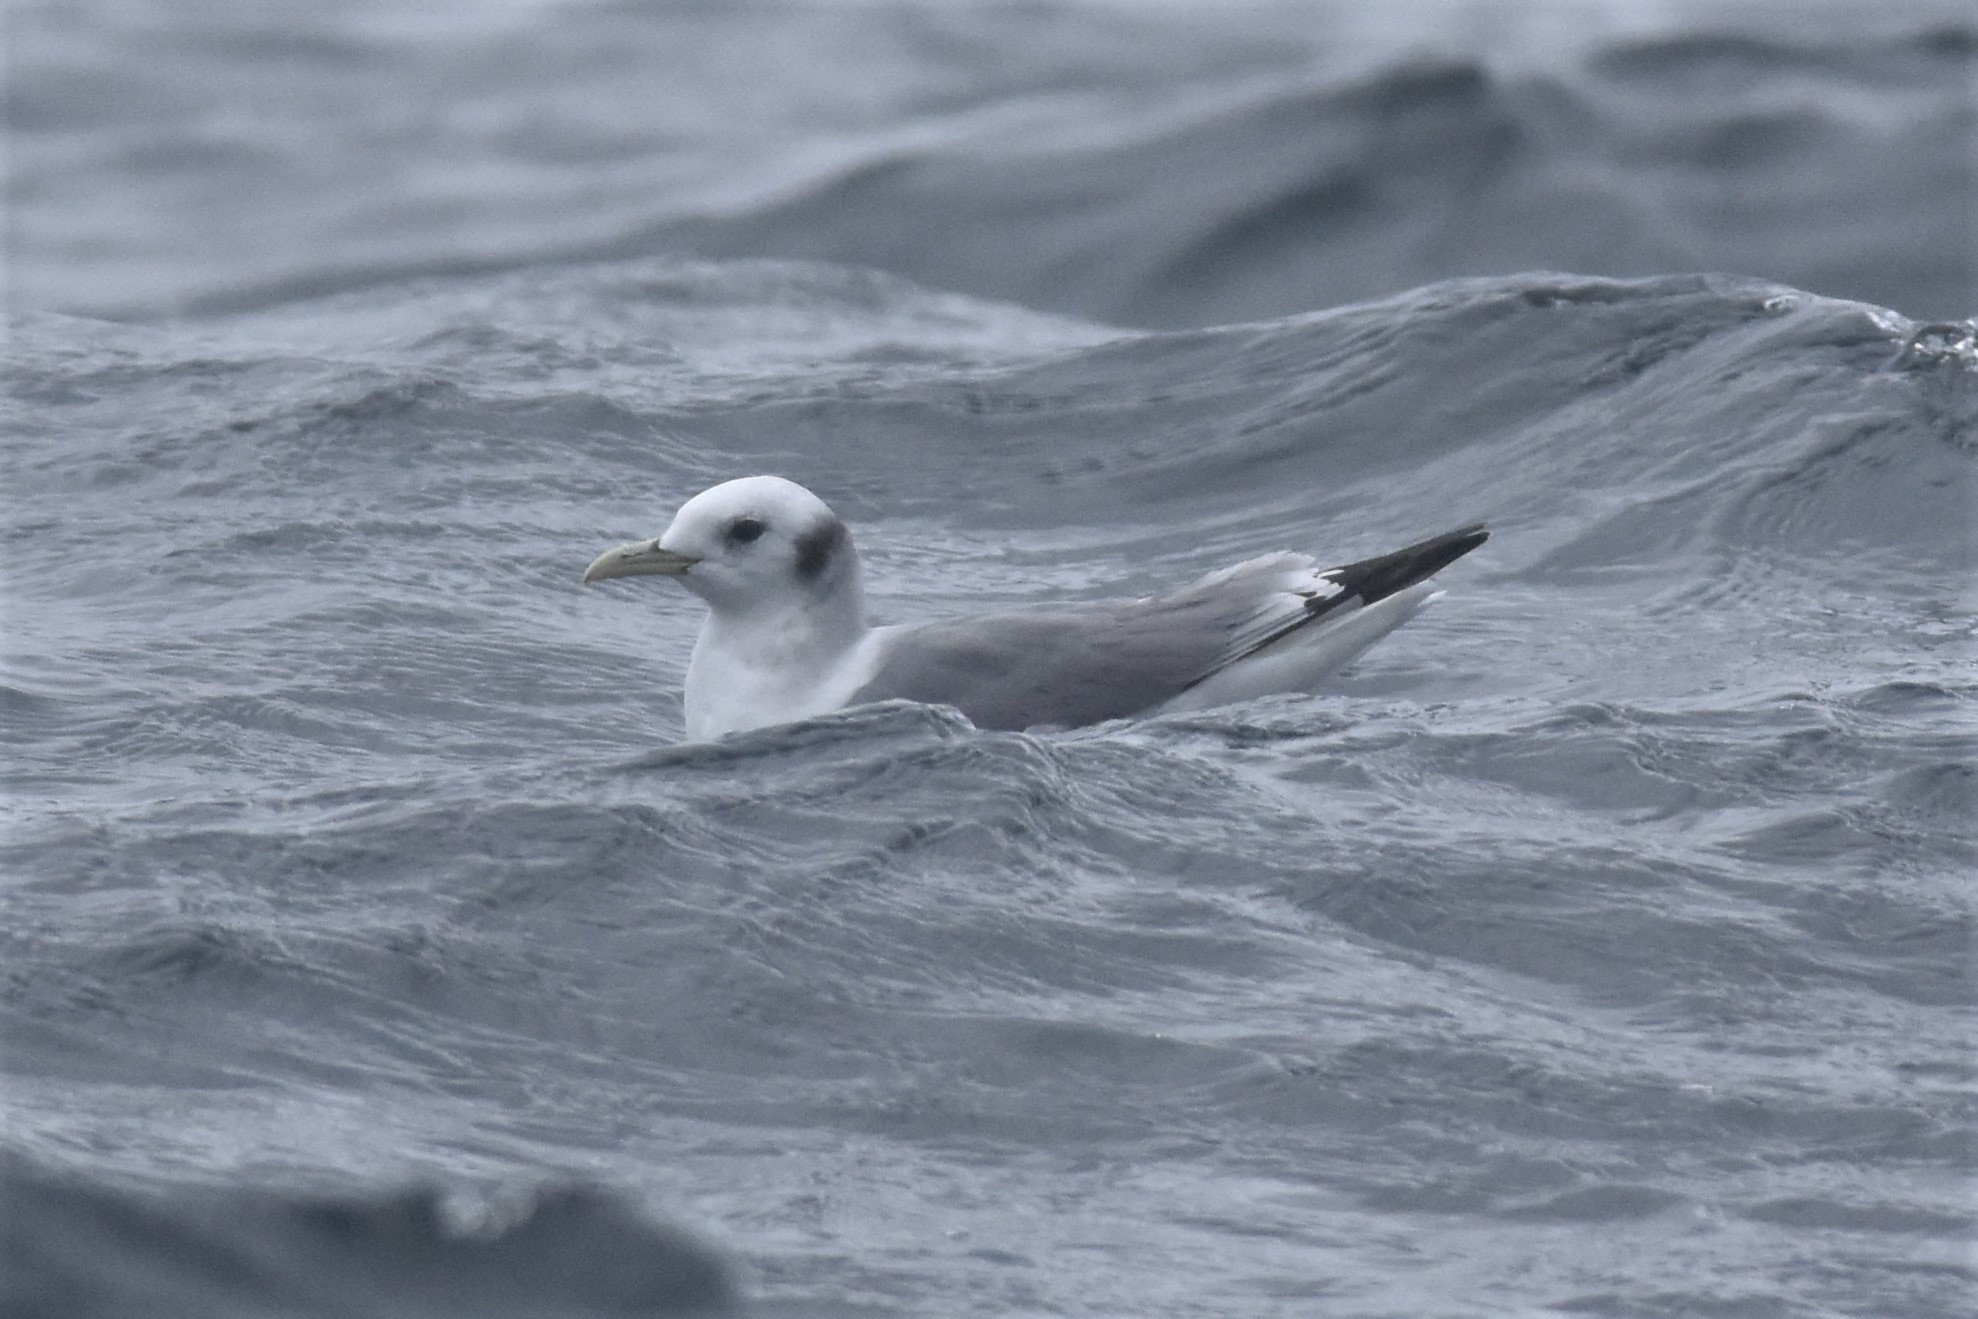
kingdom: Animalia
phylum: Chordata
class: Aves
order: Charadriiformes
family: Laridae
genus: Rissa
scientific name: Rissa tridactyla
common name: Black-legged kittiwake
